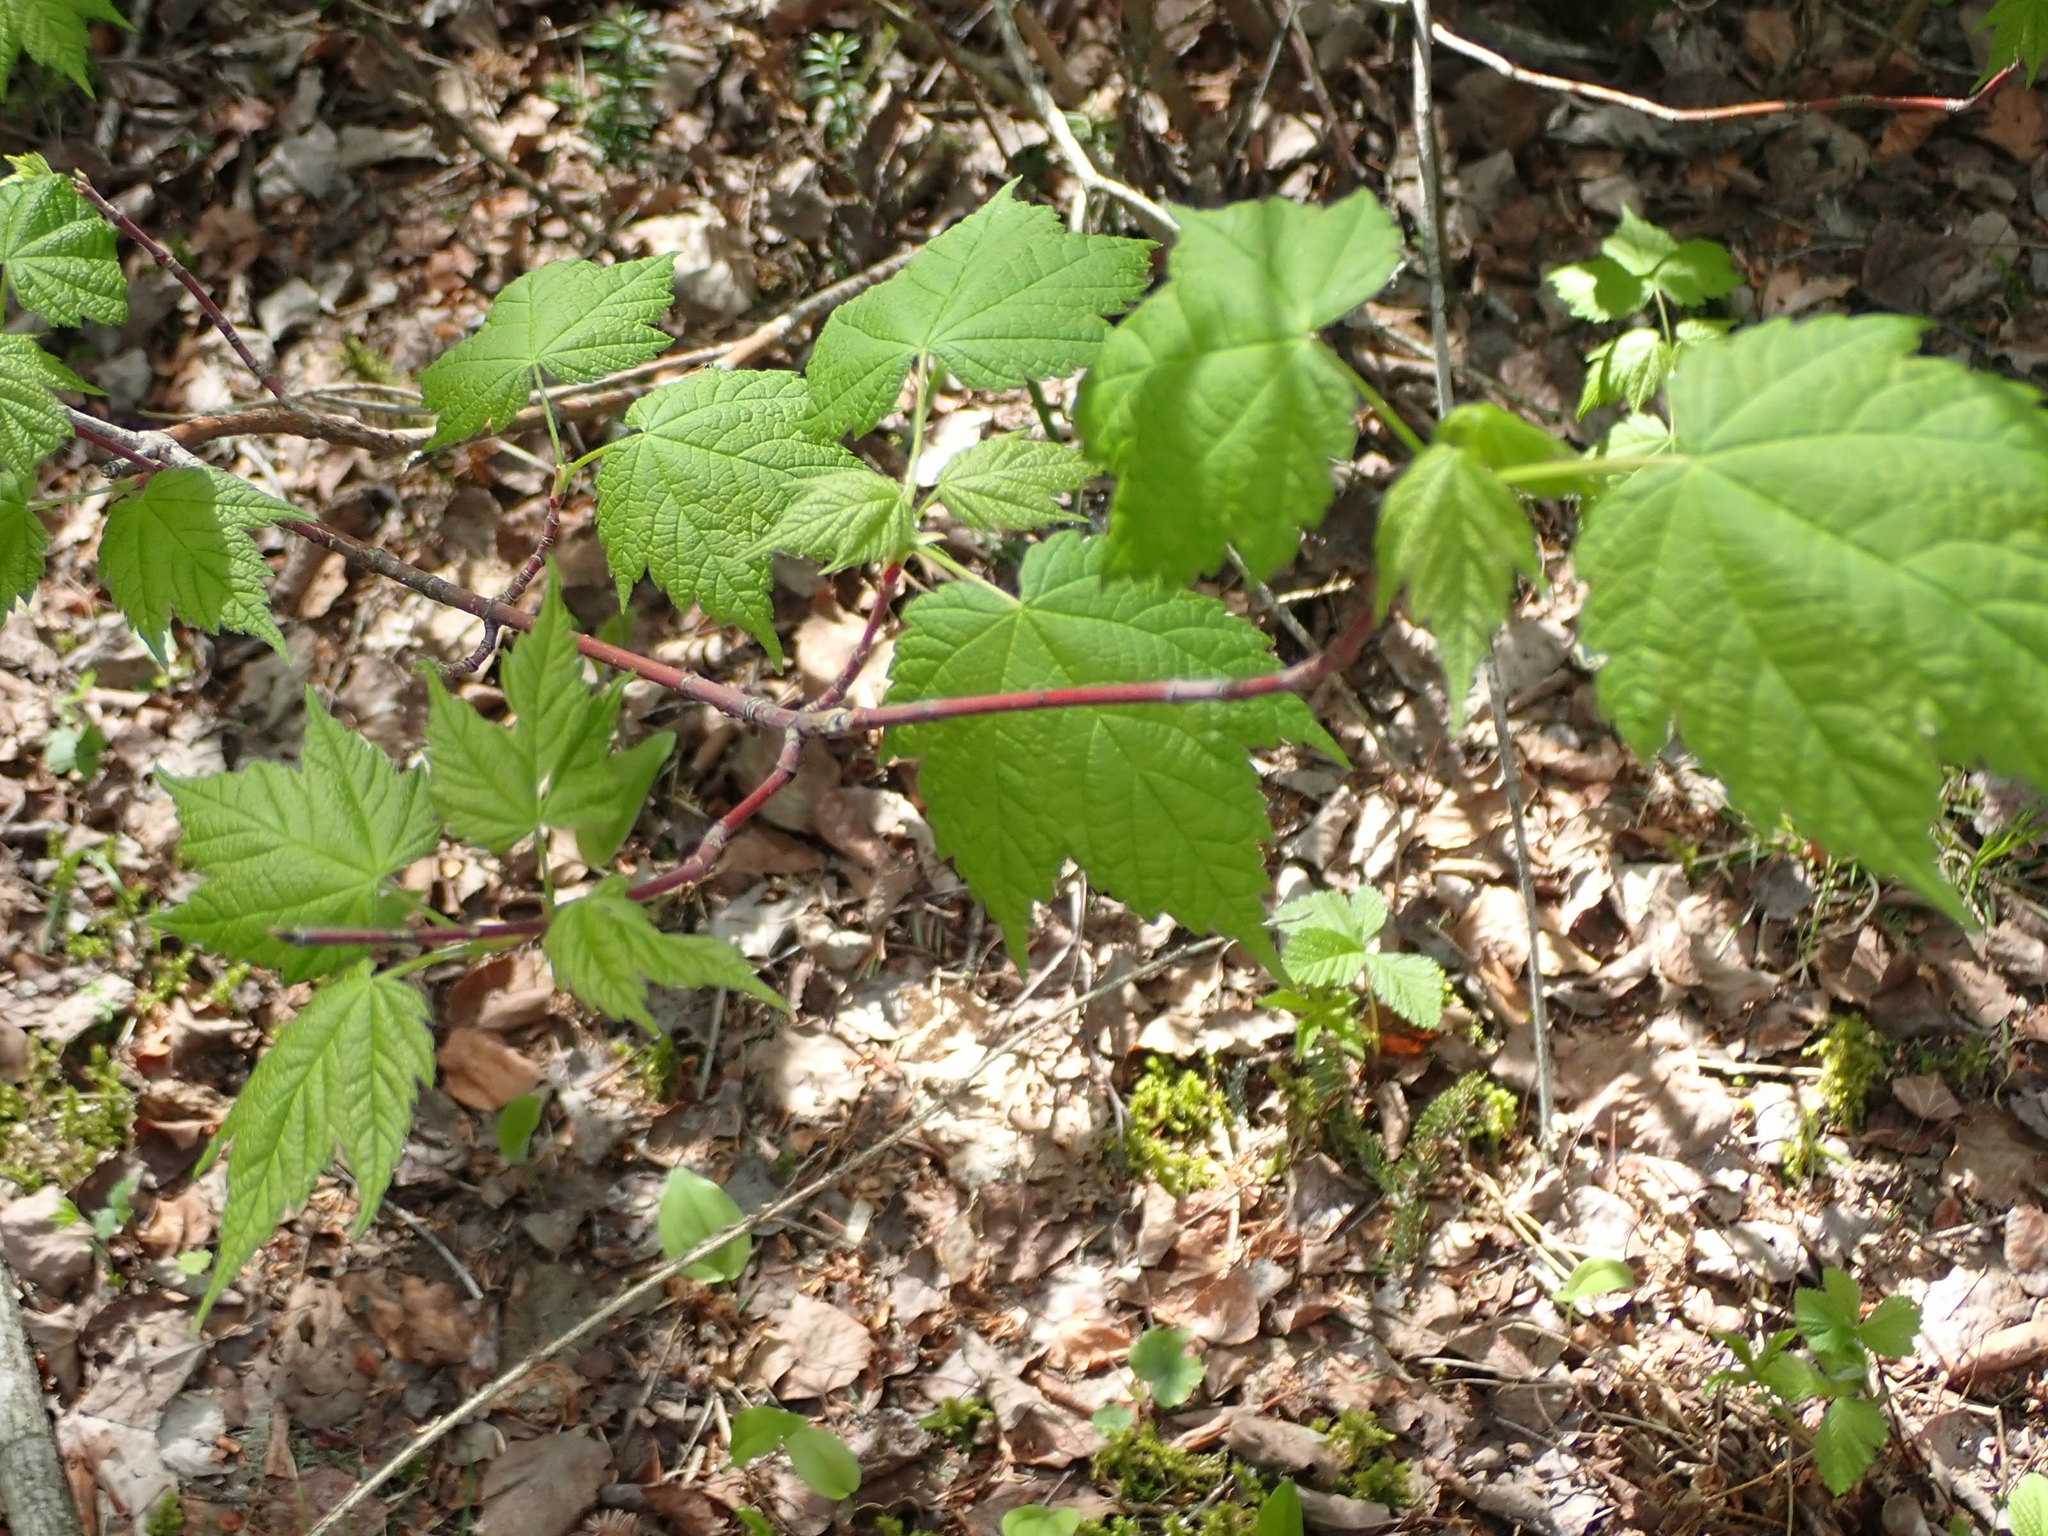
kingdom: Plantae
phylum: Tracheophyta
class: Magnoliopsida
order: Sapindales
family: Sapindaceae
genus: Acer
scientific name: Acer spicatum
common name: Mountain maple
